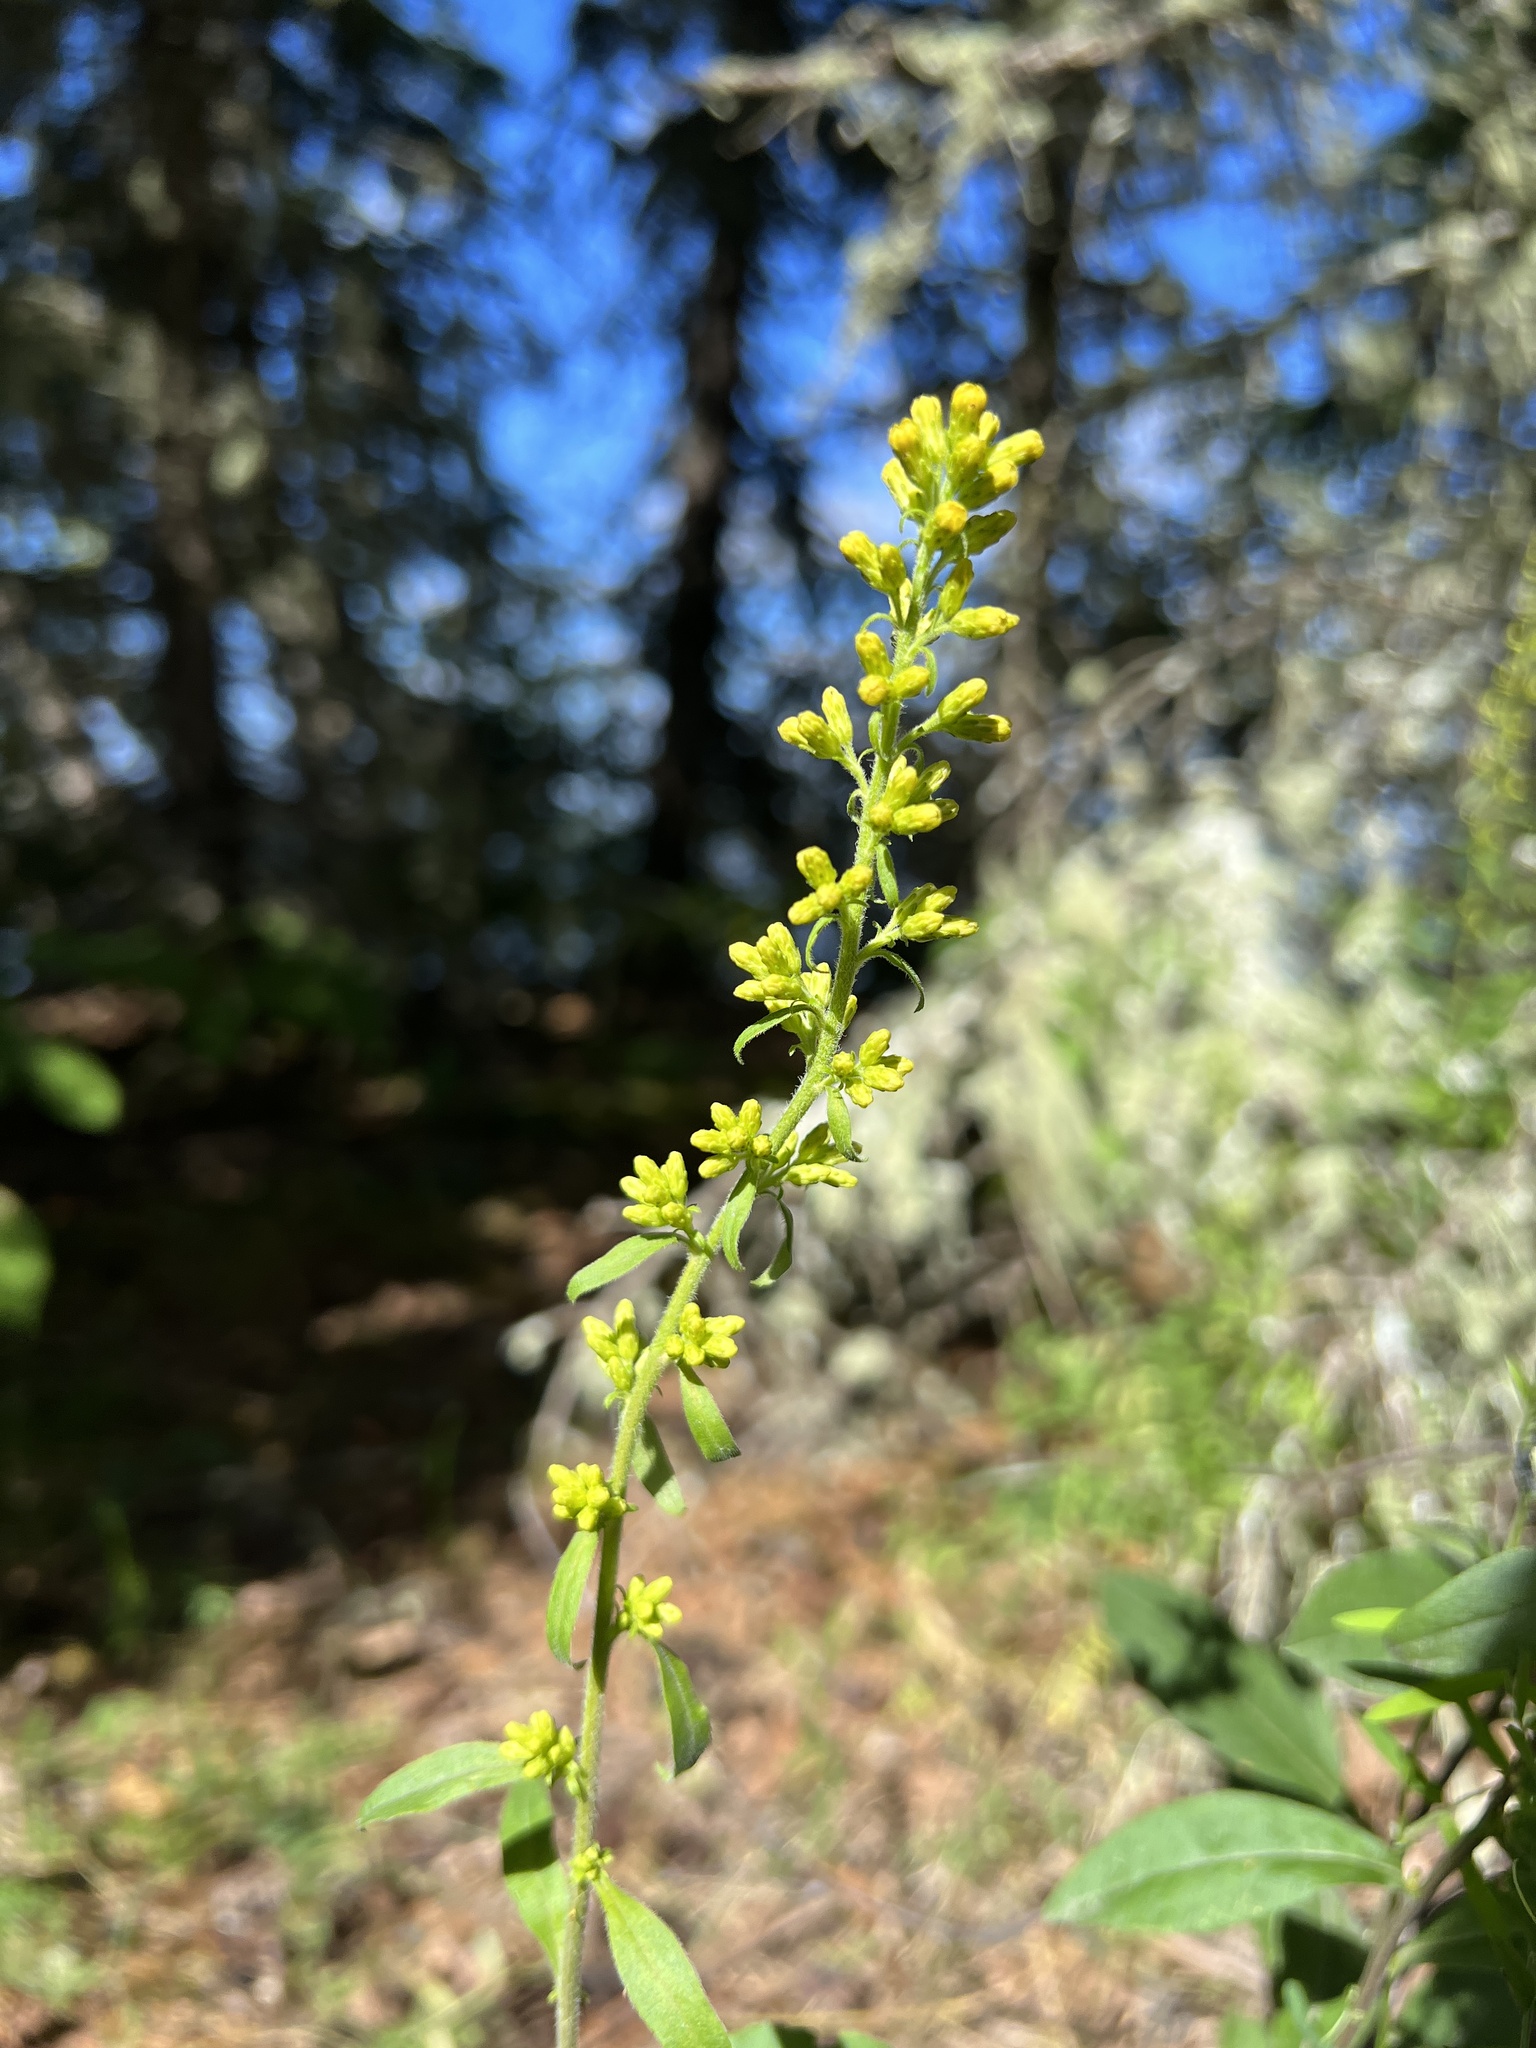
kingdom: Plantae
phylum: Tracheophyta
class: Magnoliopsida
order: Asterales
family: Asteraceae
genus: Solidago
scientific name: Solidago hispida
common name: Hairy goldenrod
